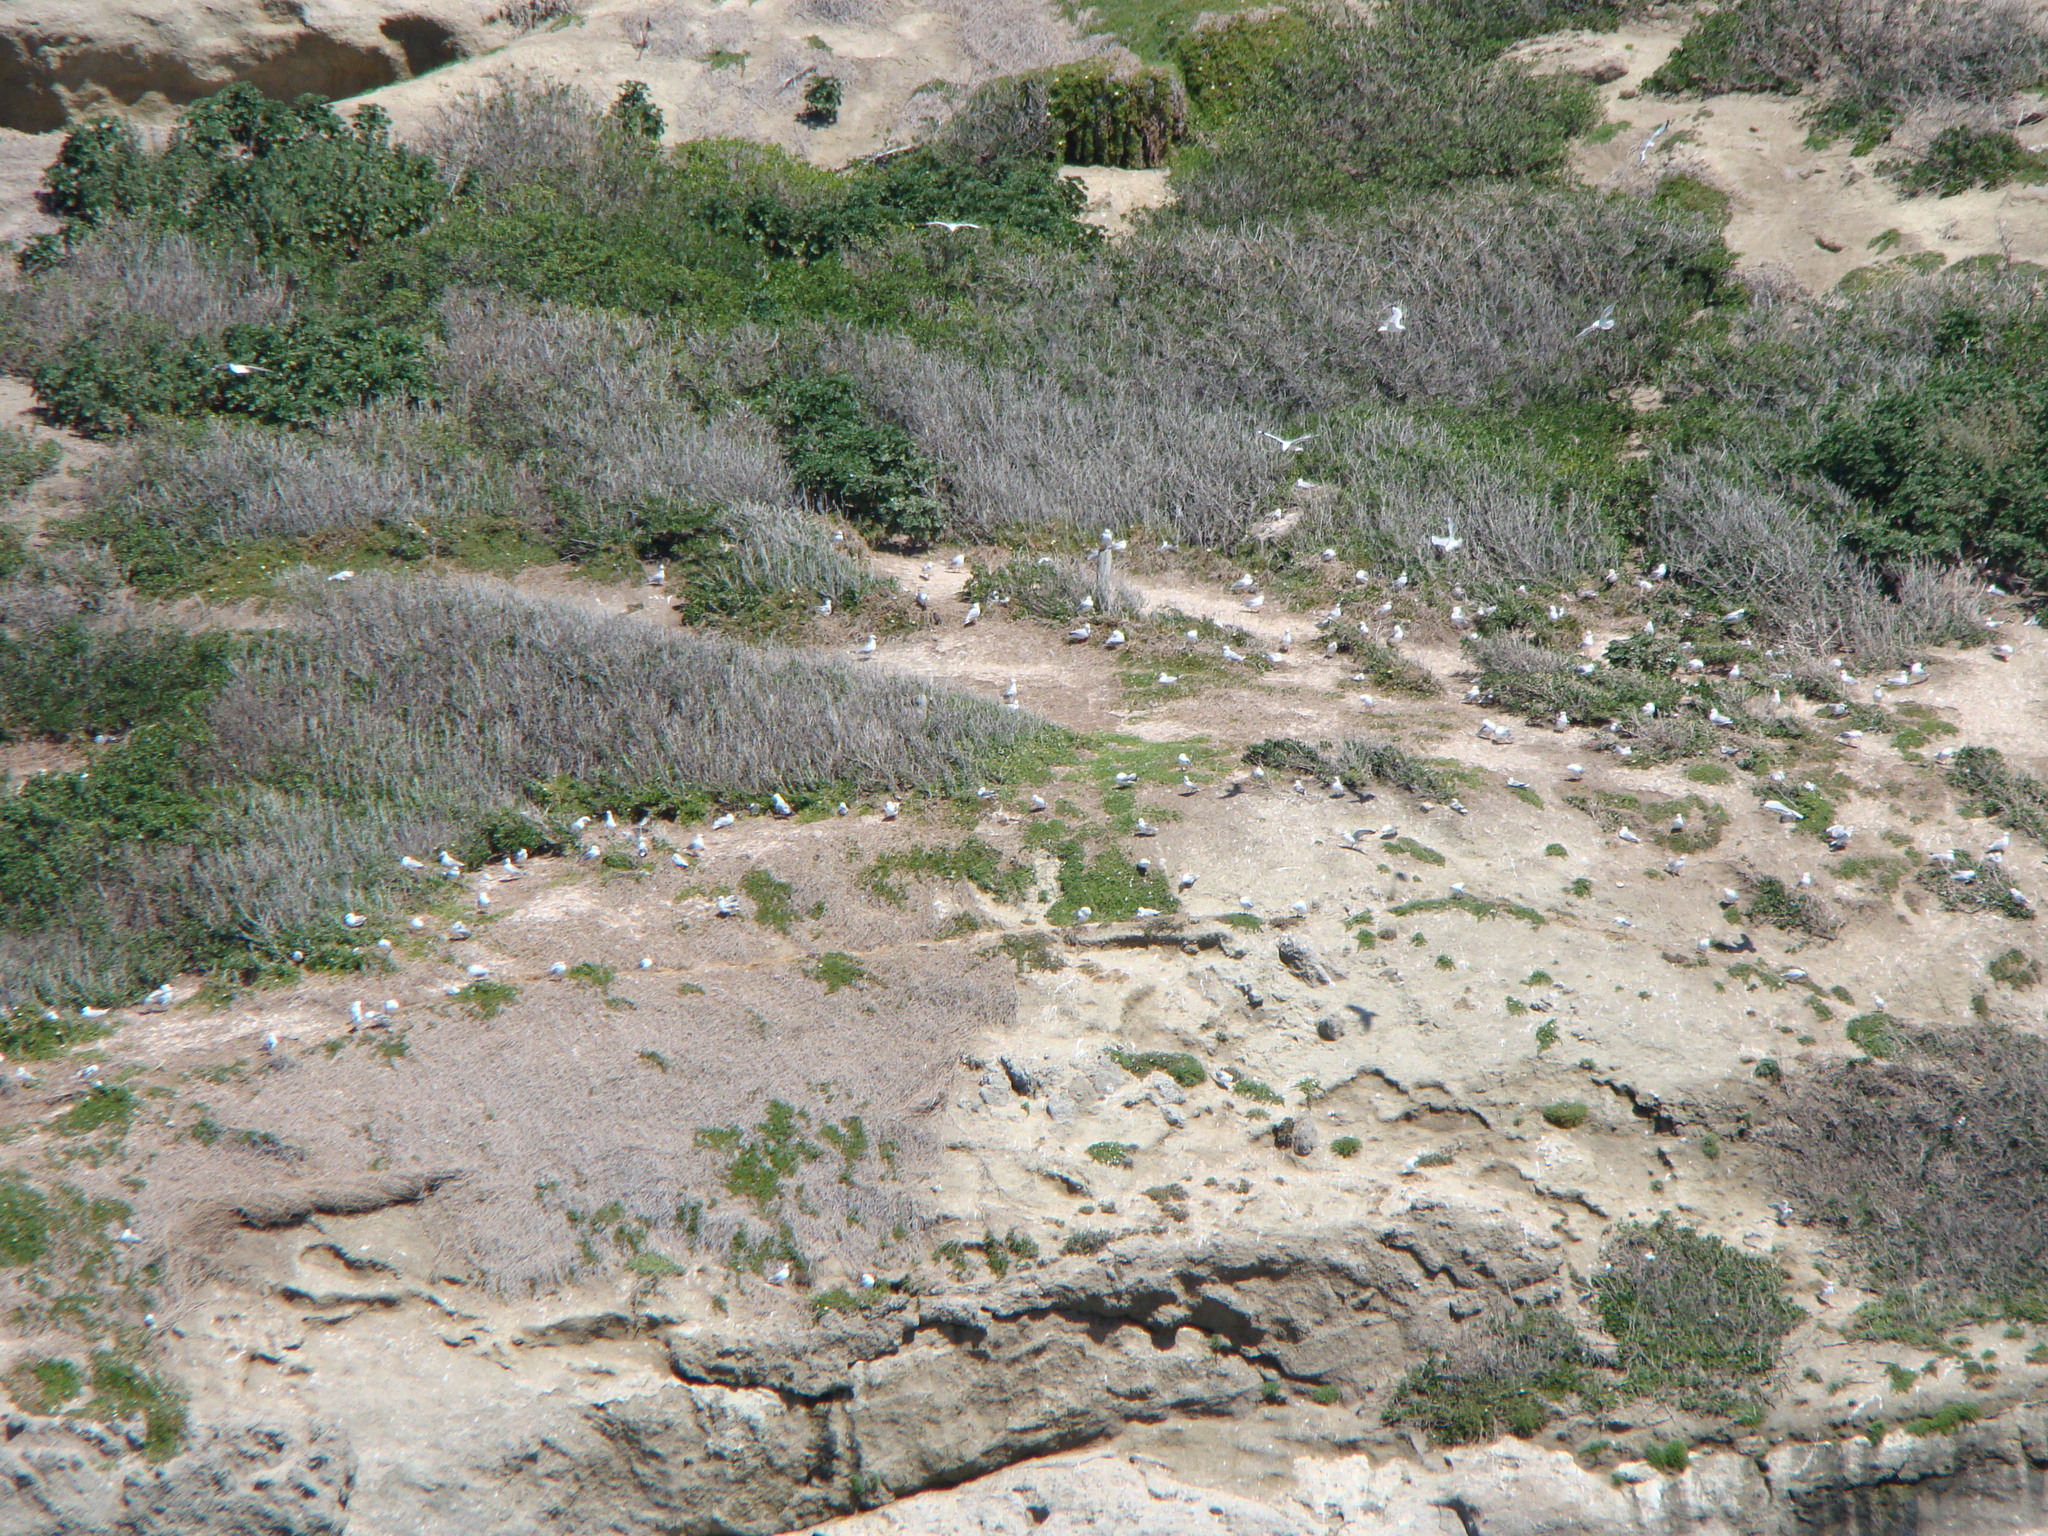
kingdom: Animalia
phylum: Chordata
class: Aves
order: Charadriiformes
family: Laridae
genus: Chroicocephalus
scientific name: Chroicocephalus novaehollandiae
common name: Silver gull
